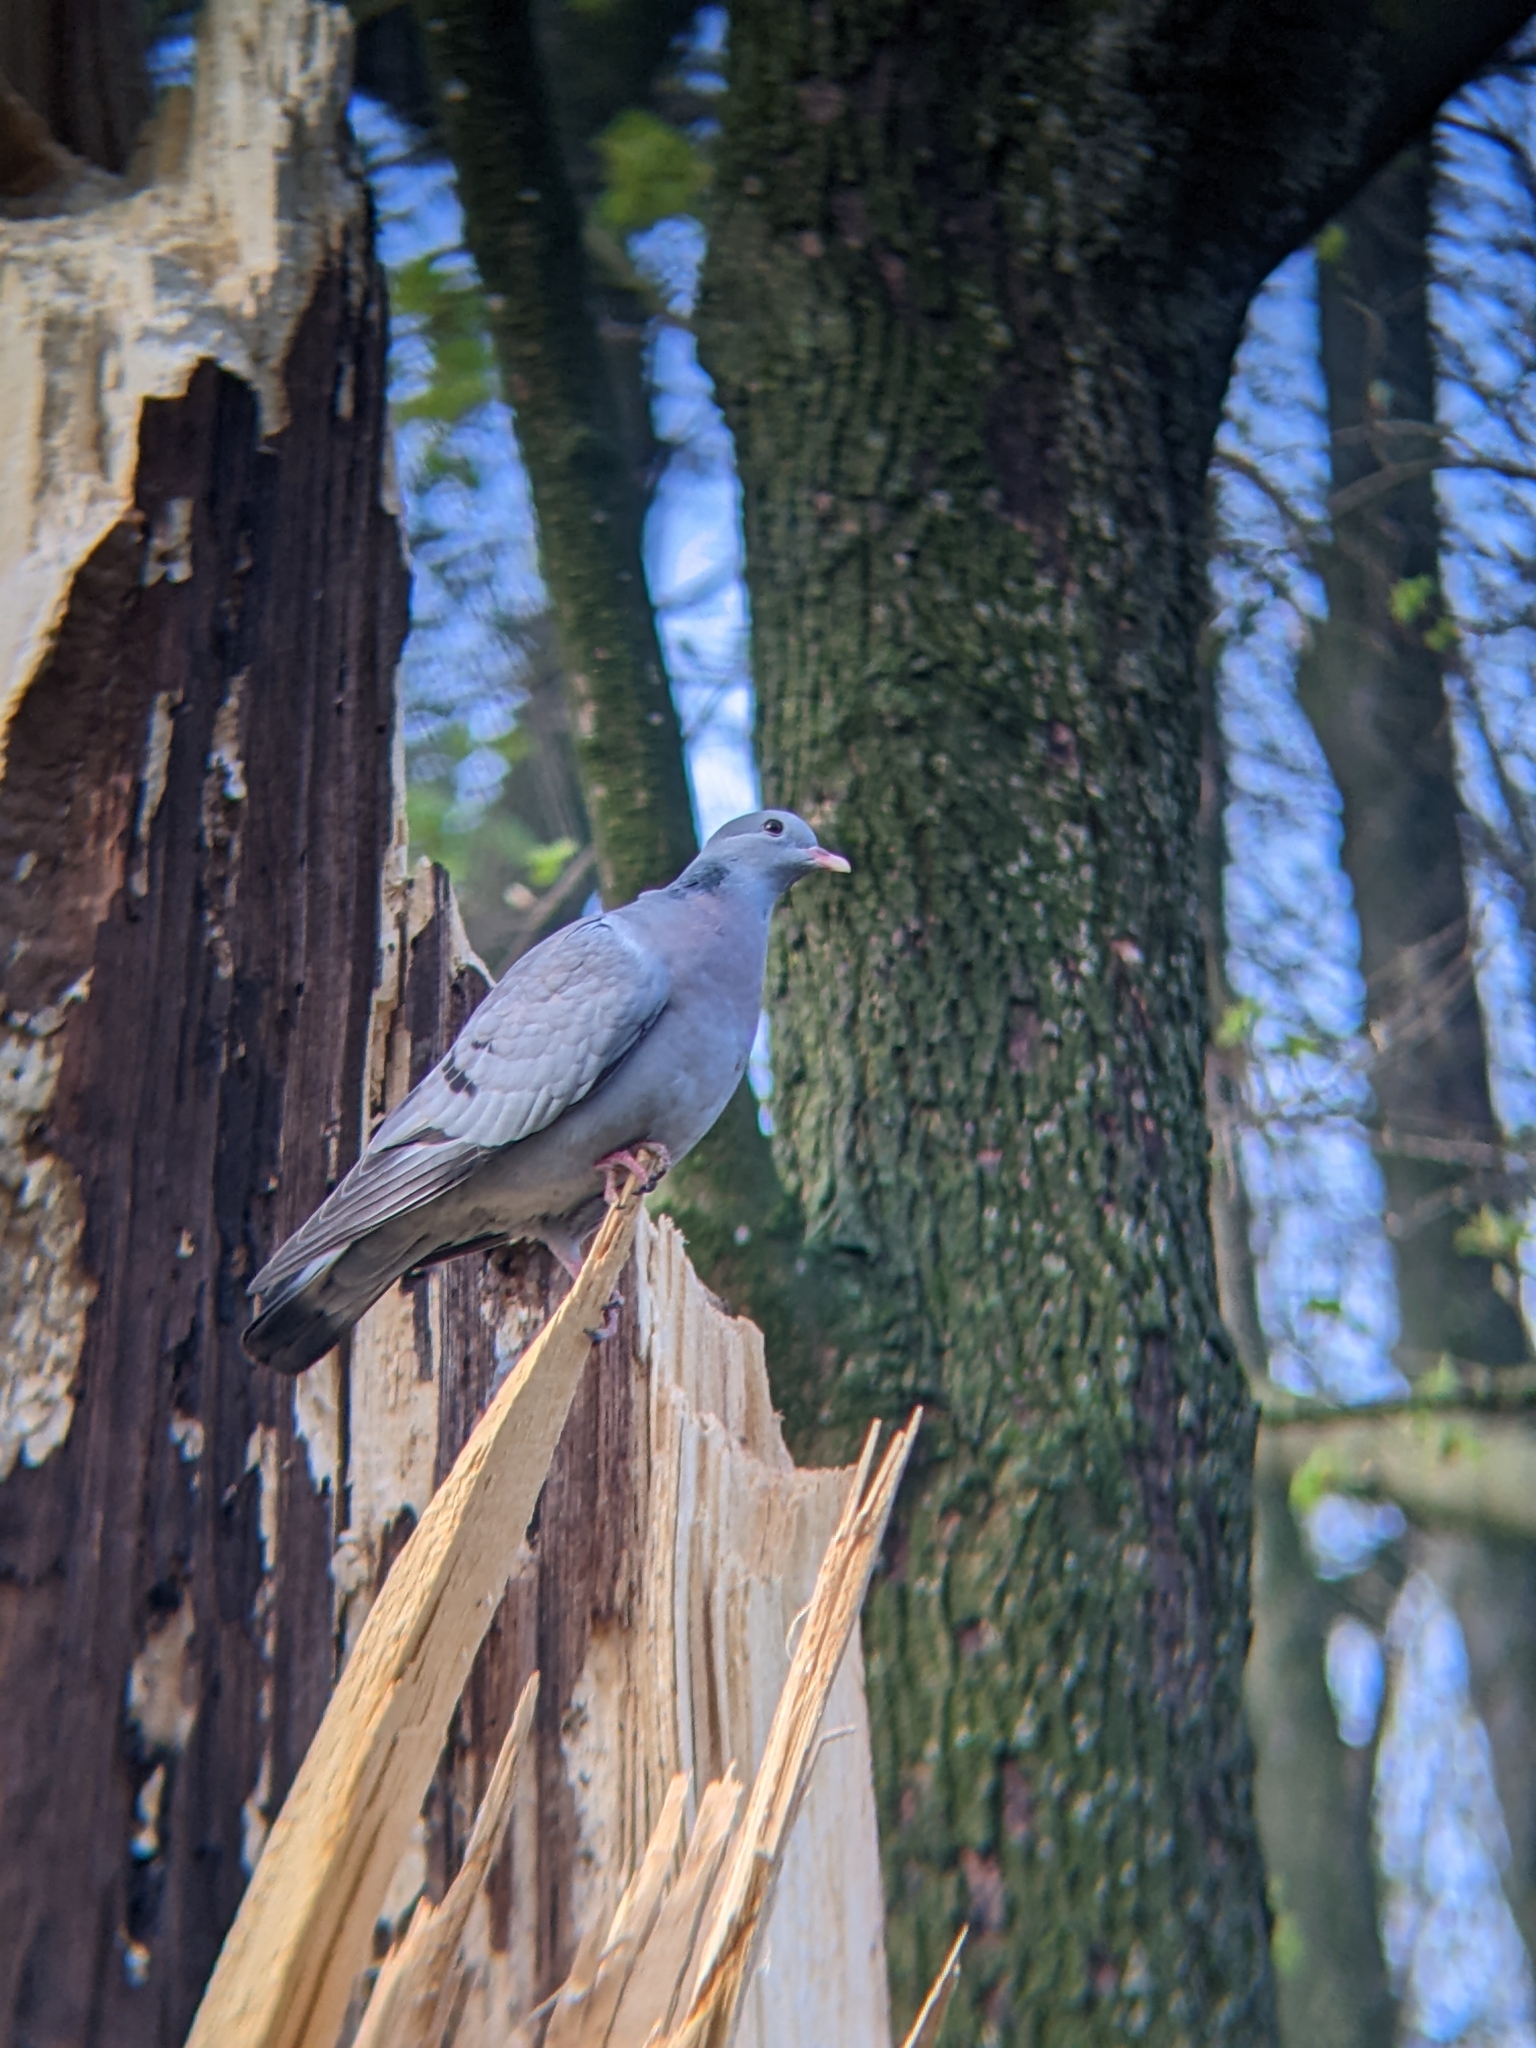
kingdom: Animalia
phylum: Chordata
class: Aves
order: Columbiformes
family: Columbidae
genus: Columba
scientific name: Columba oenas
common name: Stock dove
